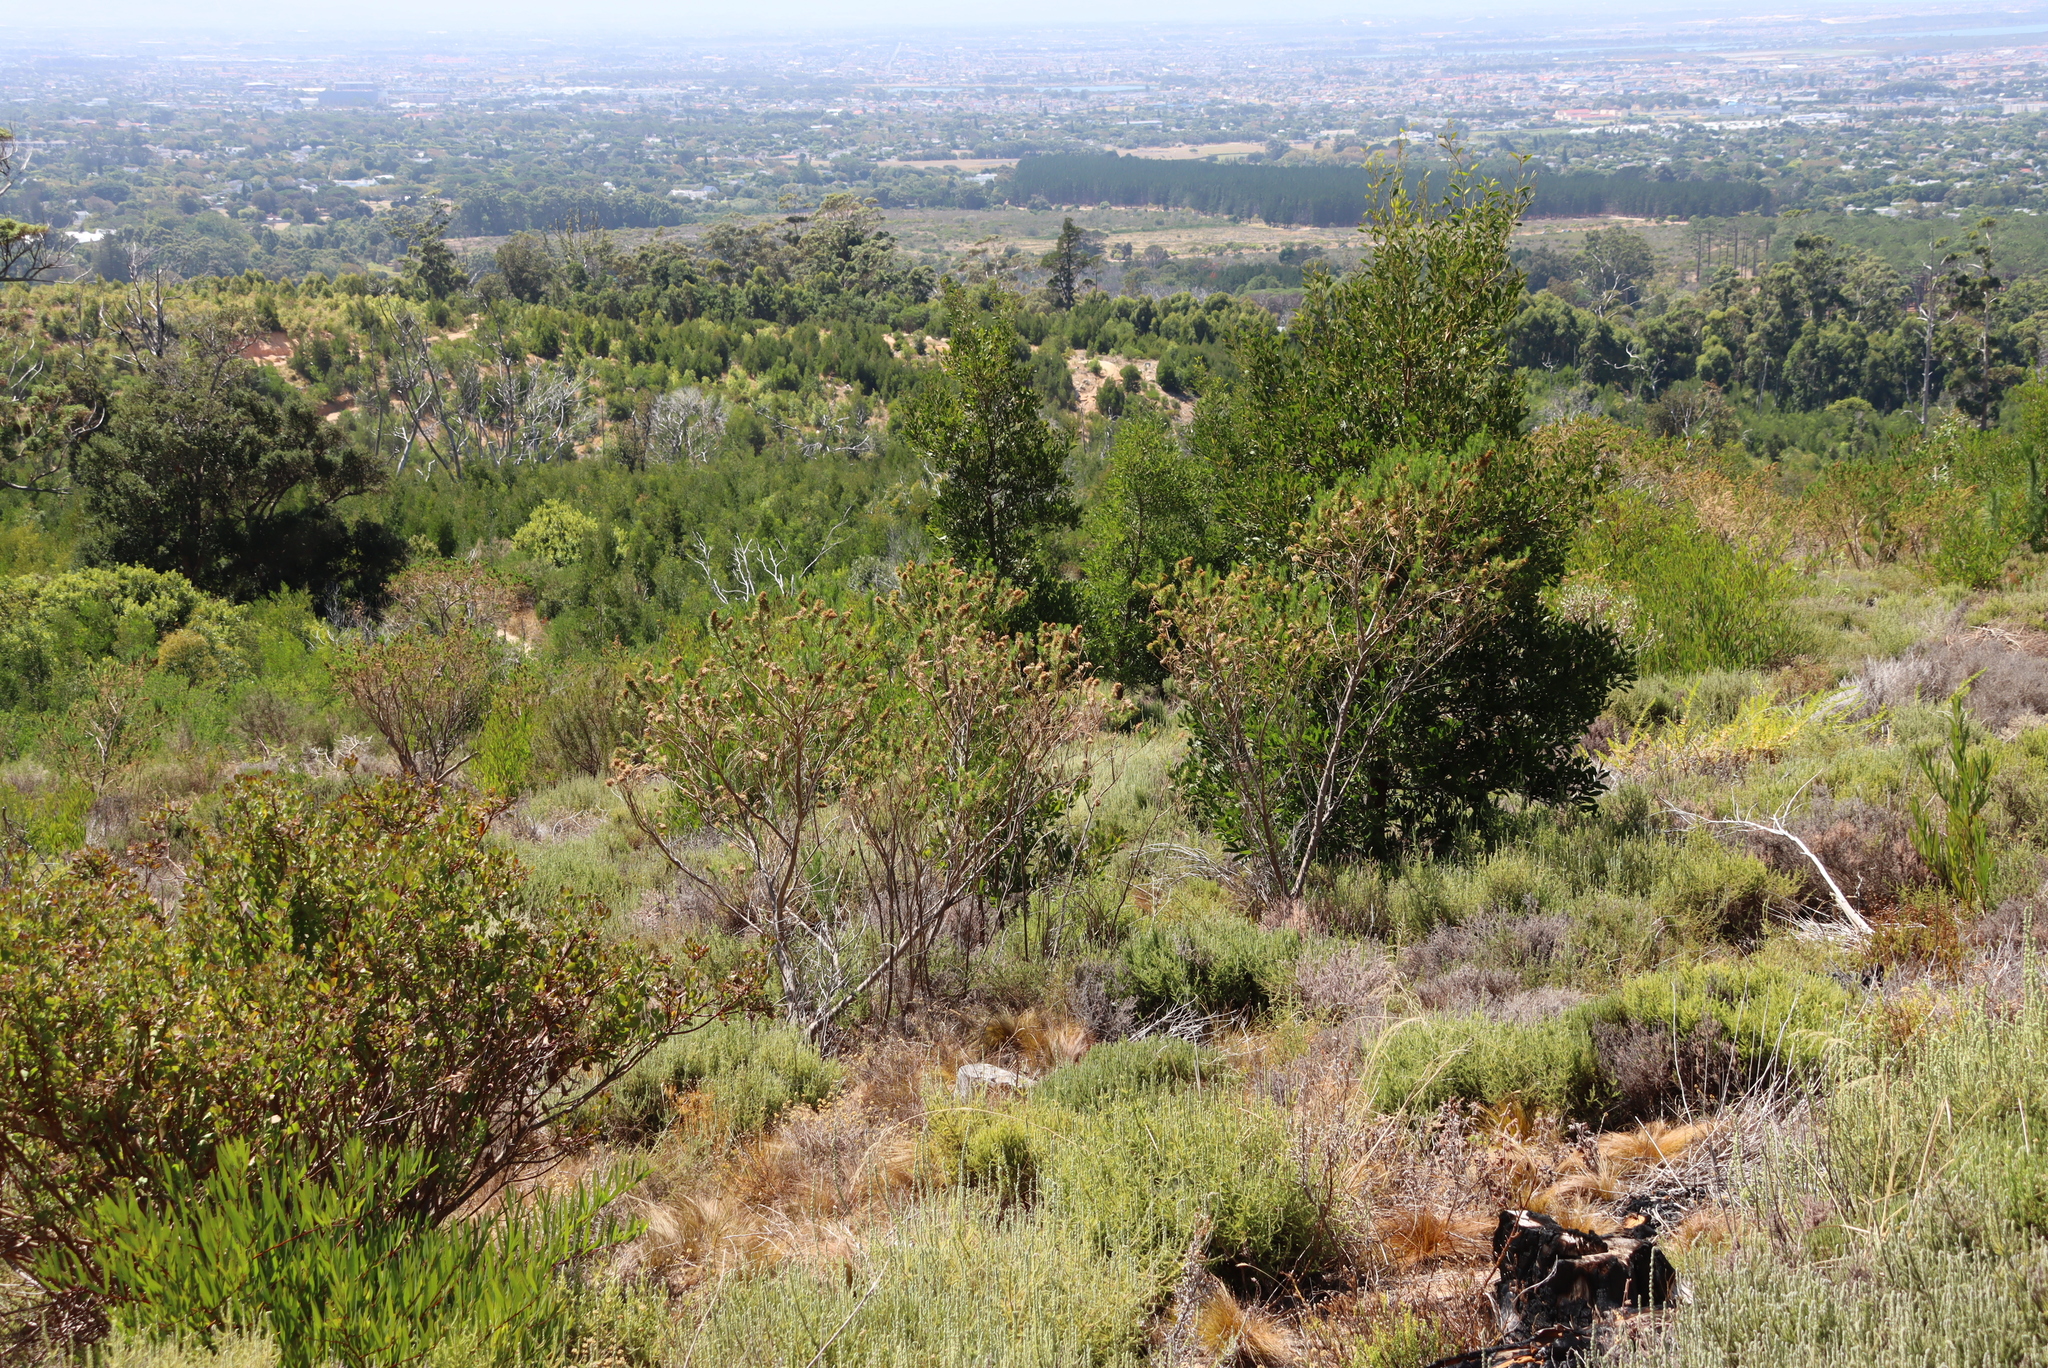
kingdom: Plantae
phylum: Tracheophyta
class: Magnoliopsida
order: Fabales
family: Fabaceae
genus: Psoralea
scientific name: Psoralea pinnata
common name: African scurfpea
